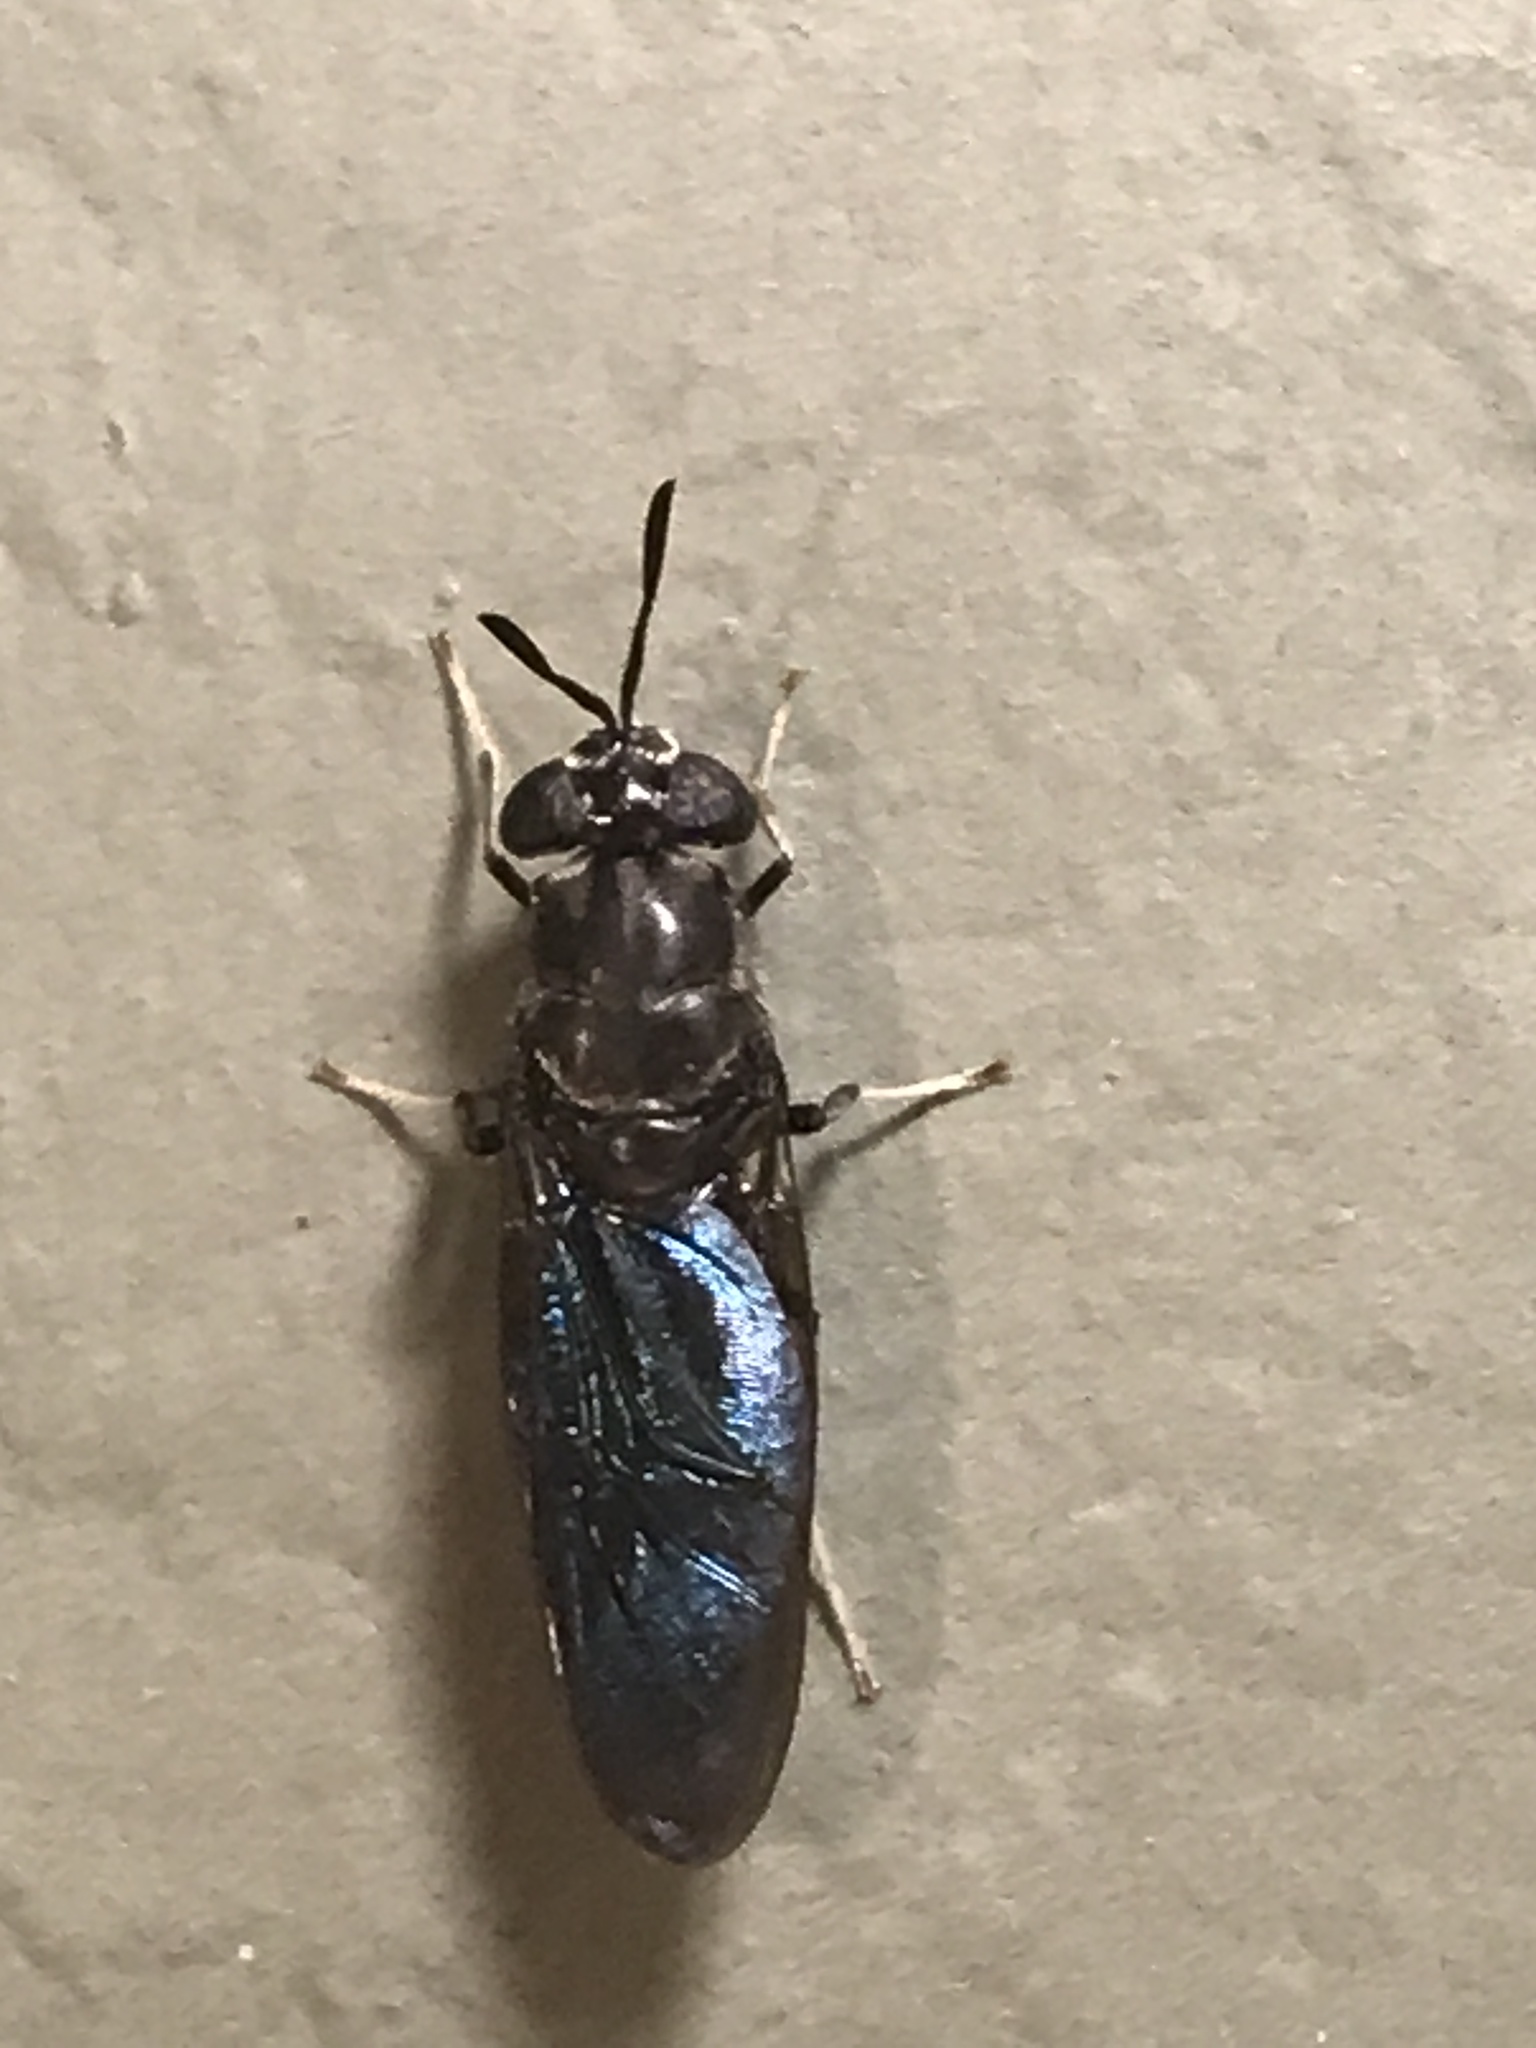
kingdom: Animalia
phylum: Arthropoda
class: Insecta
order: Diptera
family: Stratiomyidae
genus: Hermetia
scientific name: Hermetia illucens
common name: Black soldier fly
